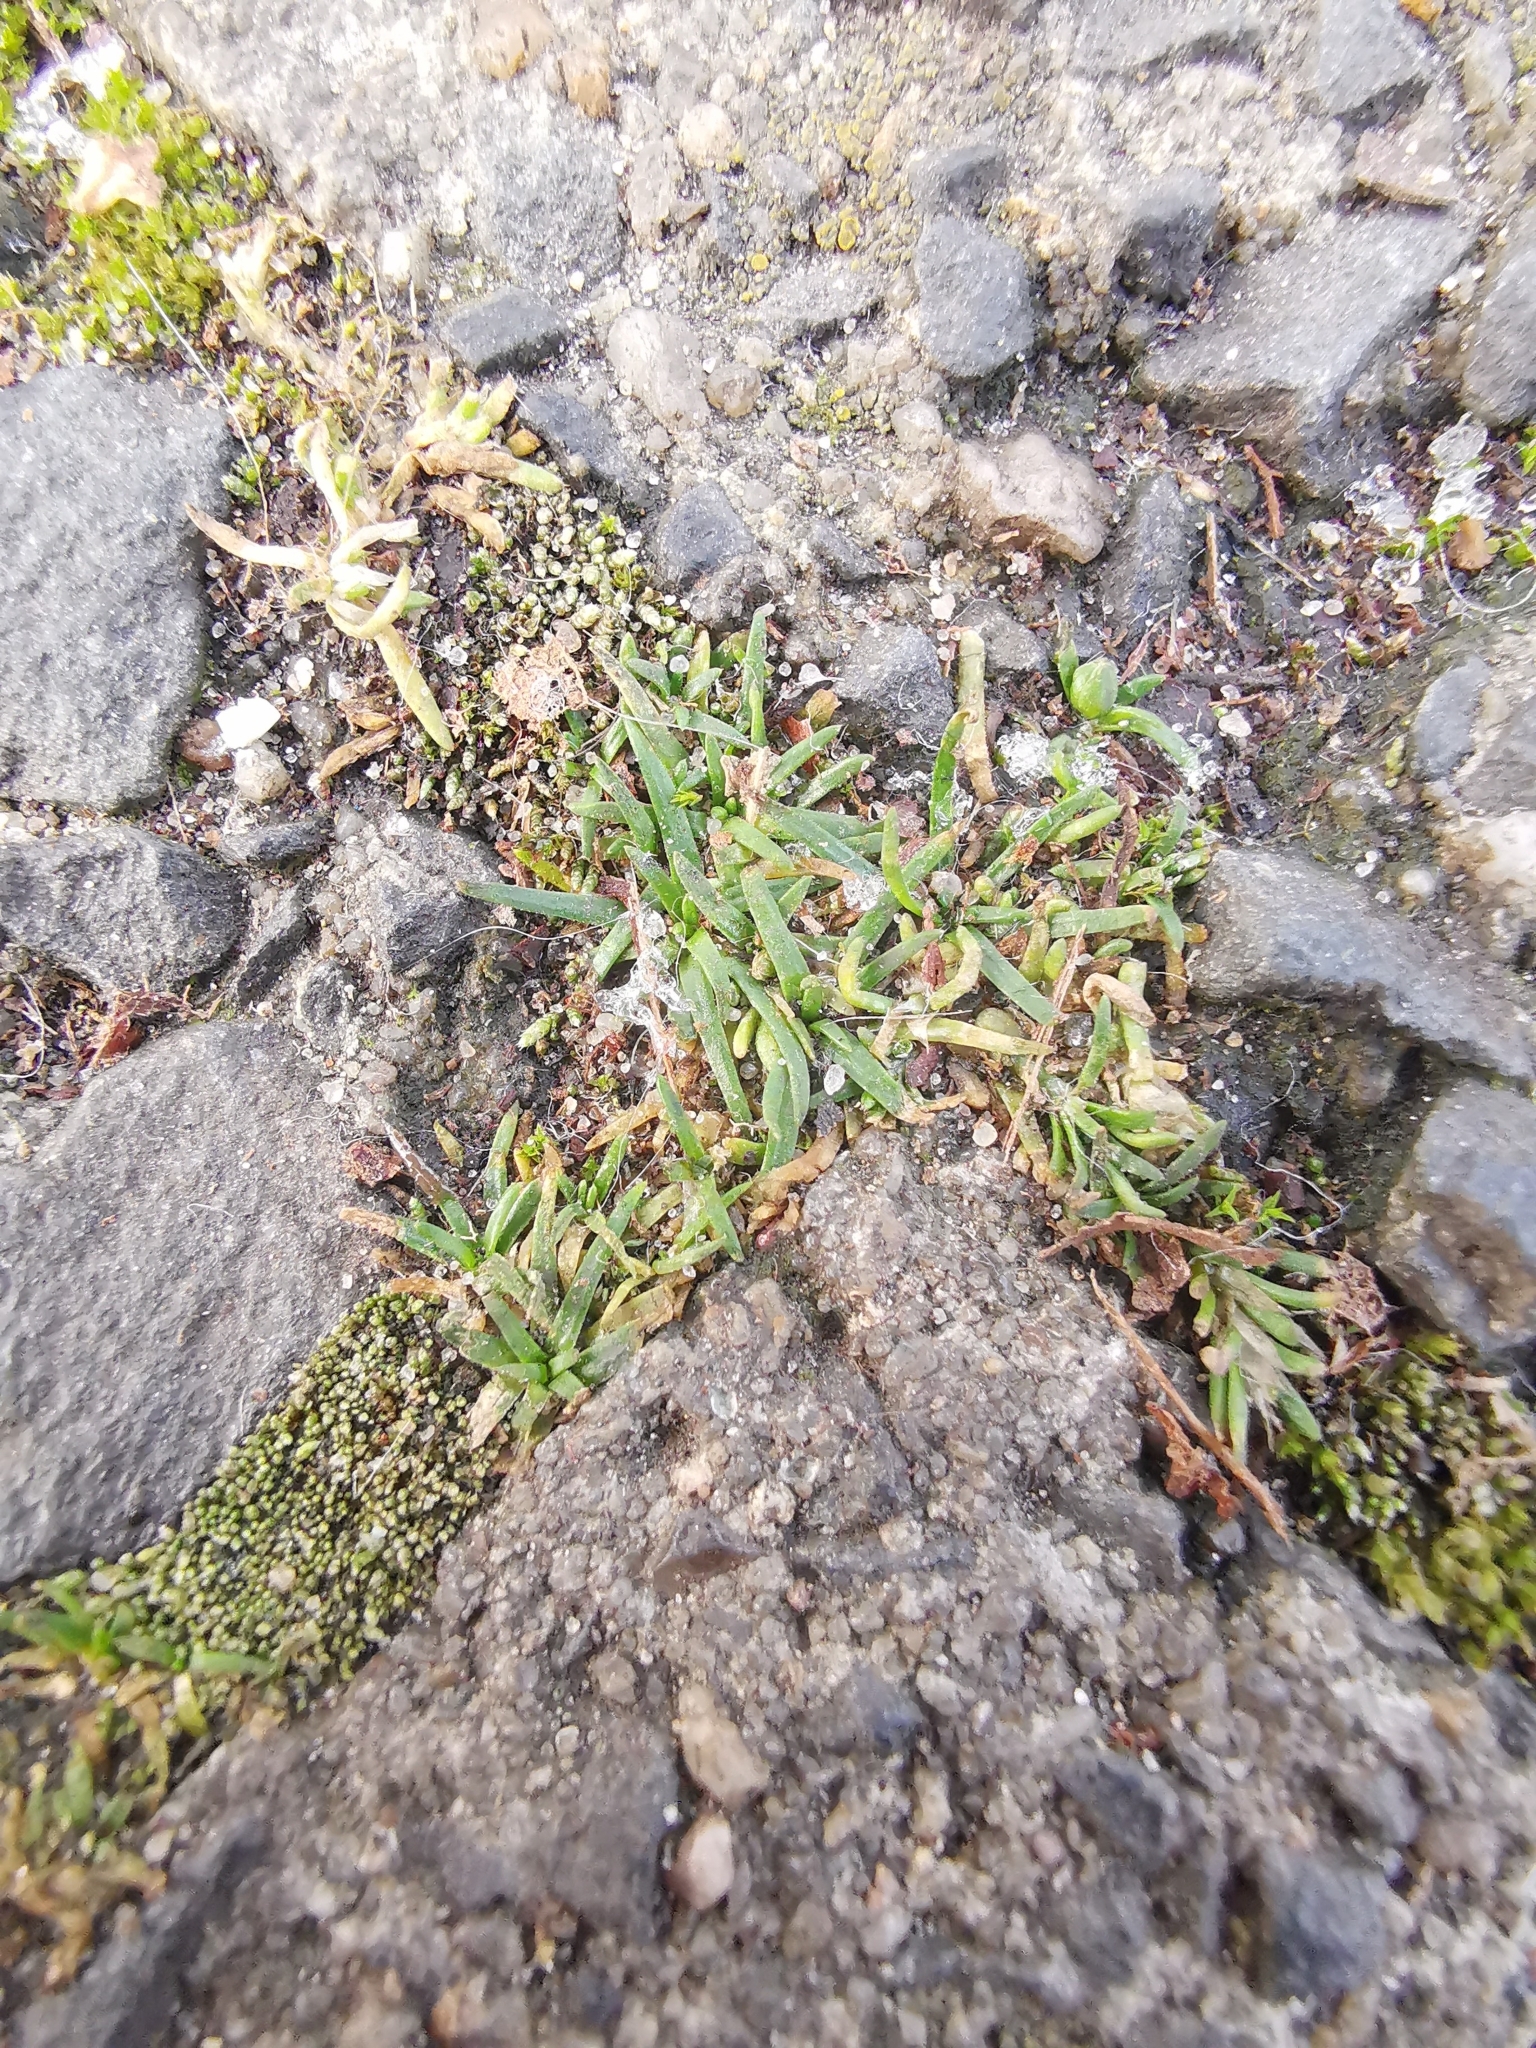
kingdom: Plantae
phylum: Tracheophyta
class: Magnoliopsida
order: Caryophyllales
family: Caryophyllaceae
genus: Sagina
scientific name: Sagina procumbens
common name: Procumbent pearlwort
